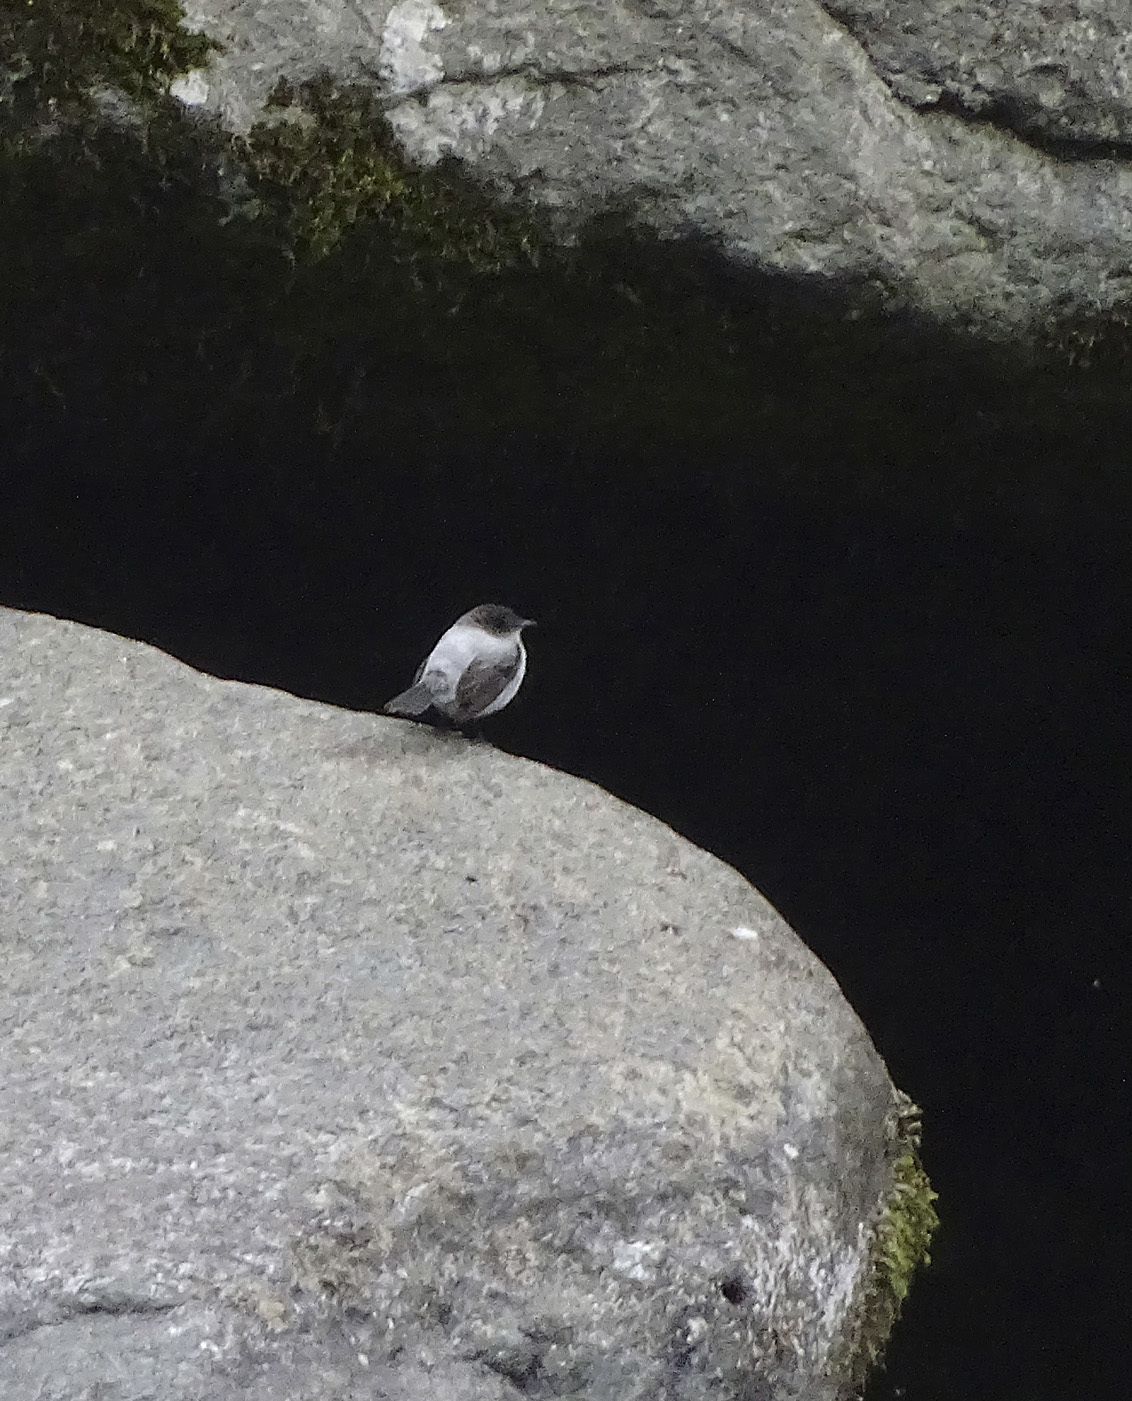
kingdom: Animalia
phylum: Chordata
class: Aves
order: Passeriformes
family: Tyrannidae
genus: Serpophaga
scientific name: Serpophaga cinerea
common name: Torrent tyrannulet
